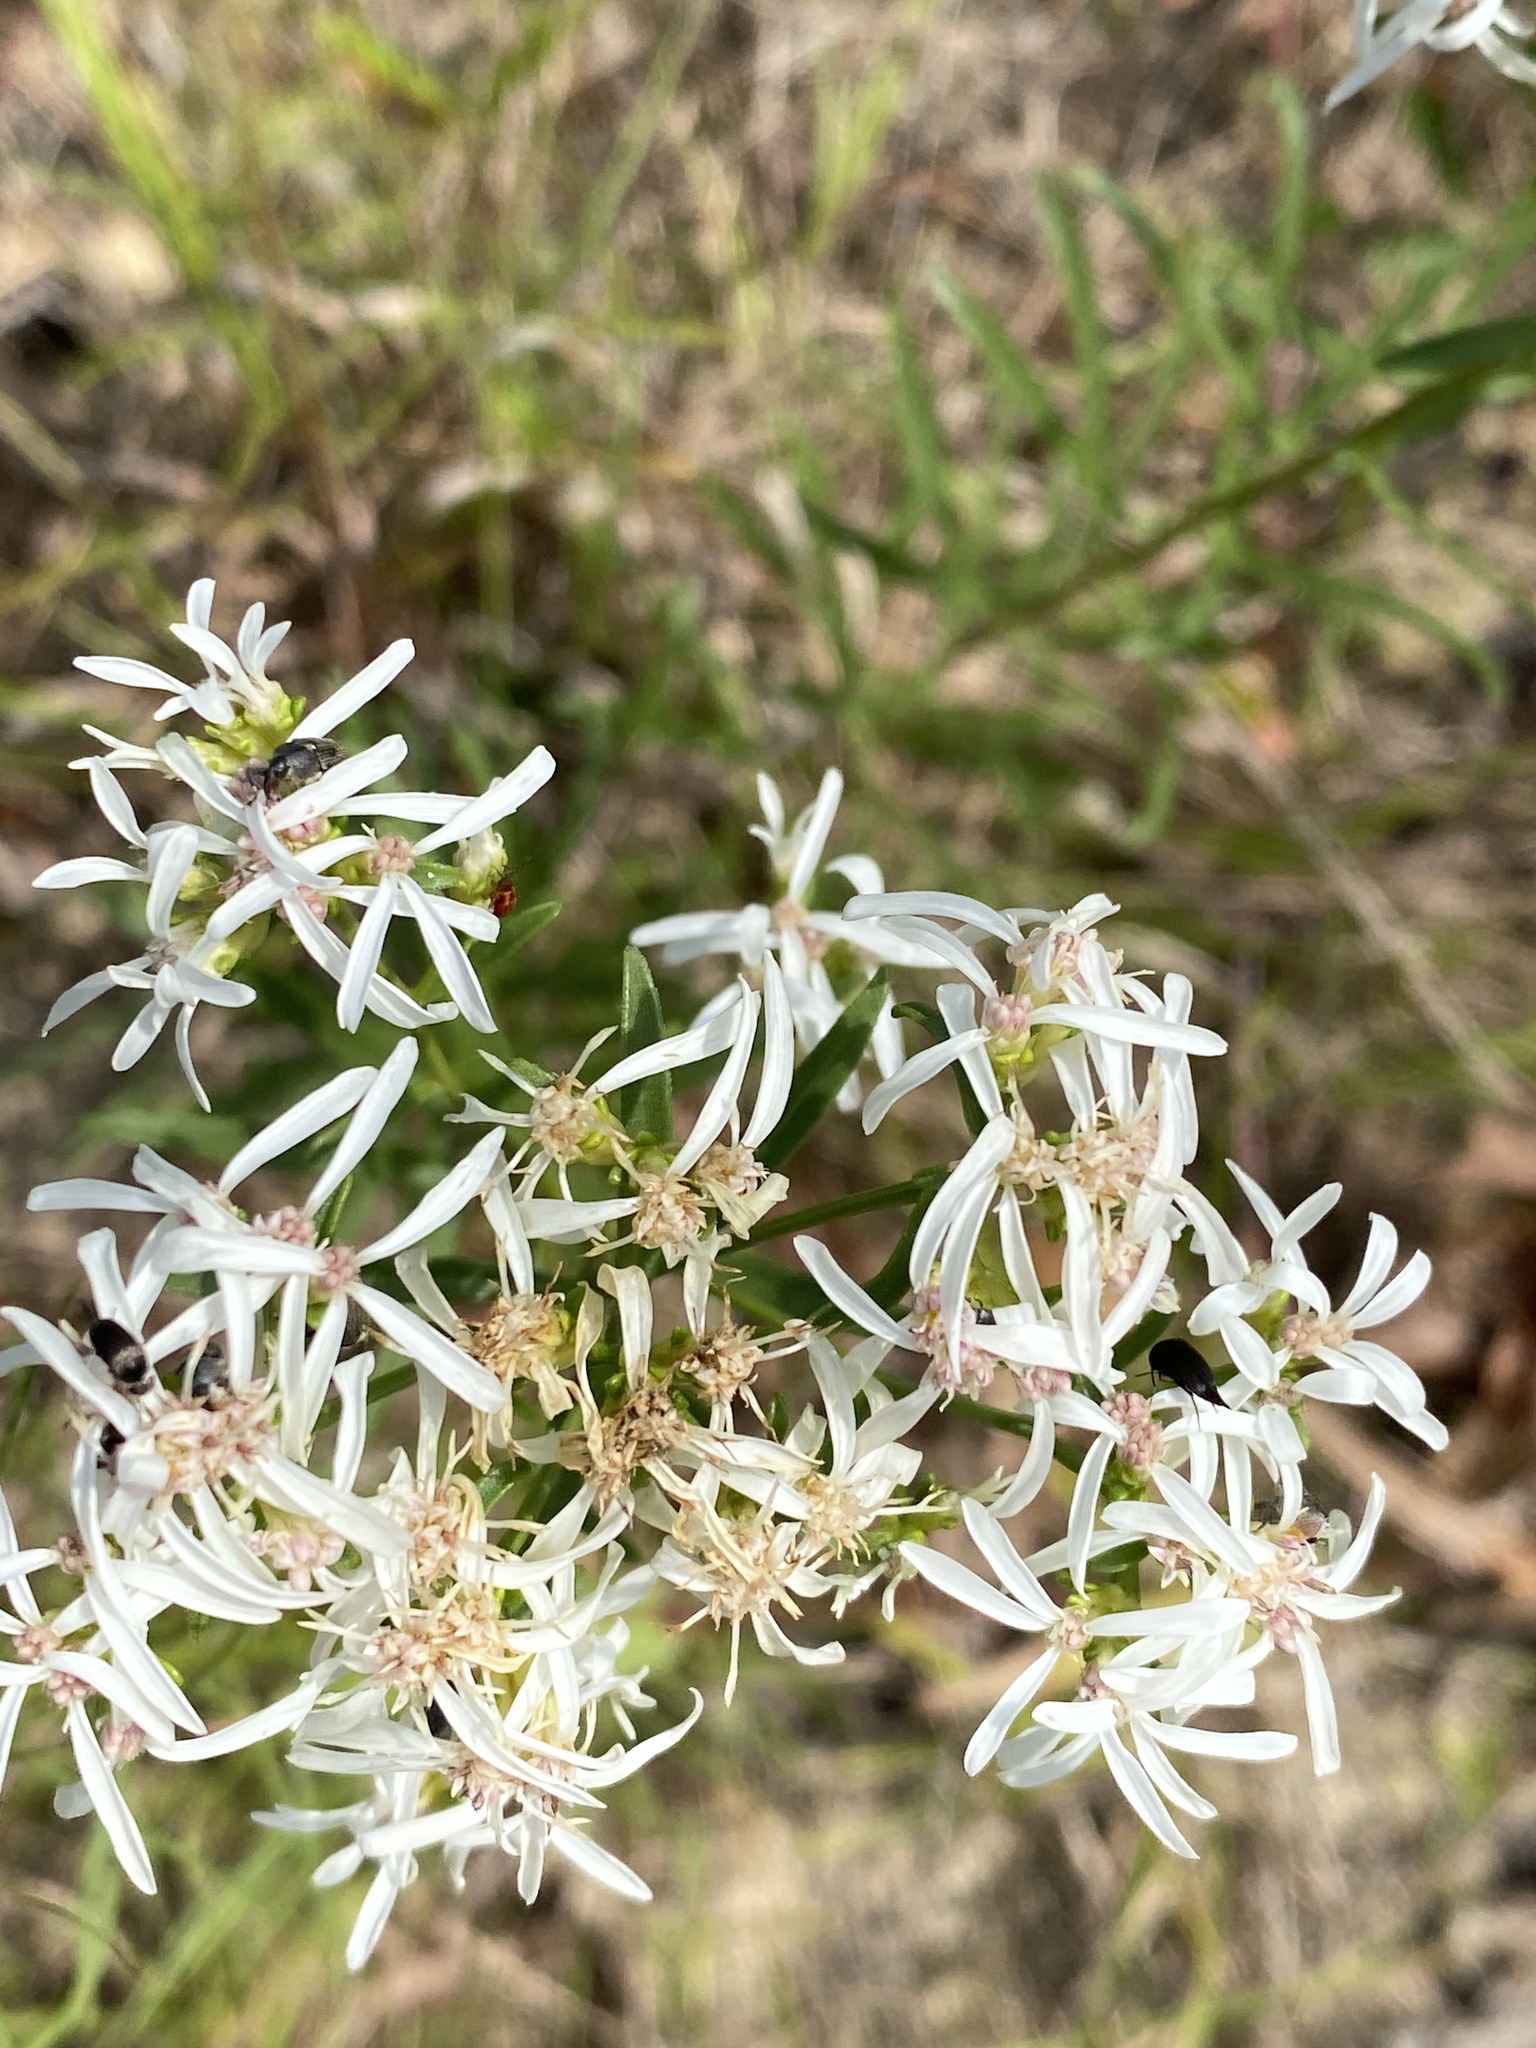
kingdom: Plantae
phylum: Tracheophyta
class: Magnoliopsida
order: Asterales
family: Asteraceae
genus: Sericocarpus
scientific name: Sericocarpus linifolius
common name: Narrow-leaf aster
